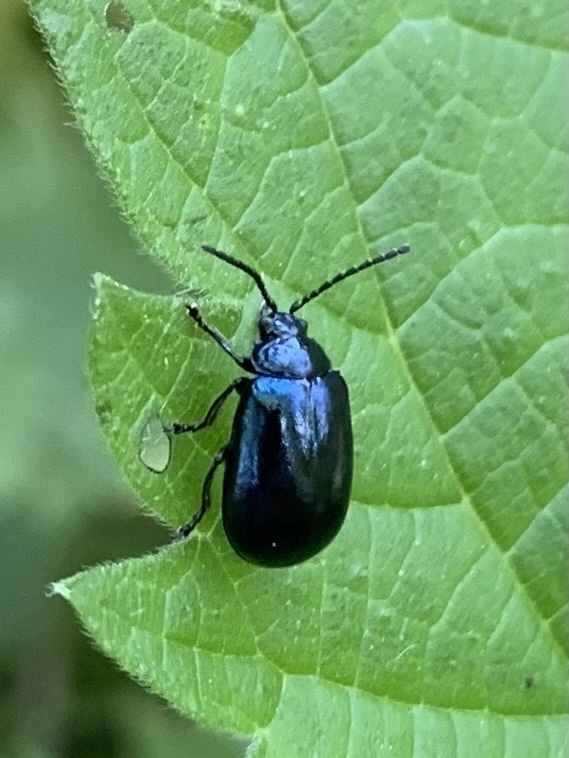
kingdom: Animalia
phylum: Arthropoda
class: Insecta
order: Coleoptera
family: Chrysomelidae
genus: Agelastica
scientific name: Agelastica alni
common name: Alder leaf beetle
